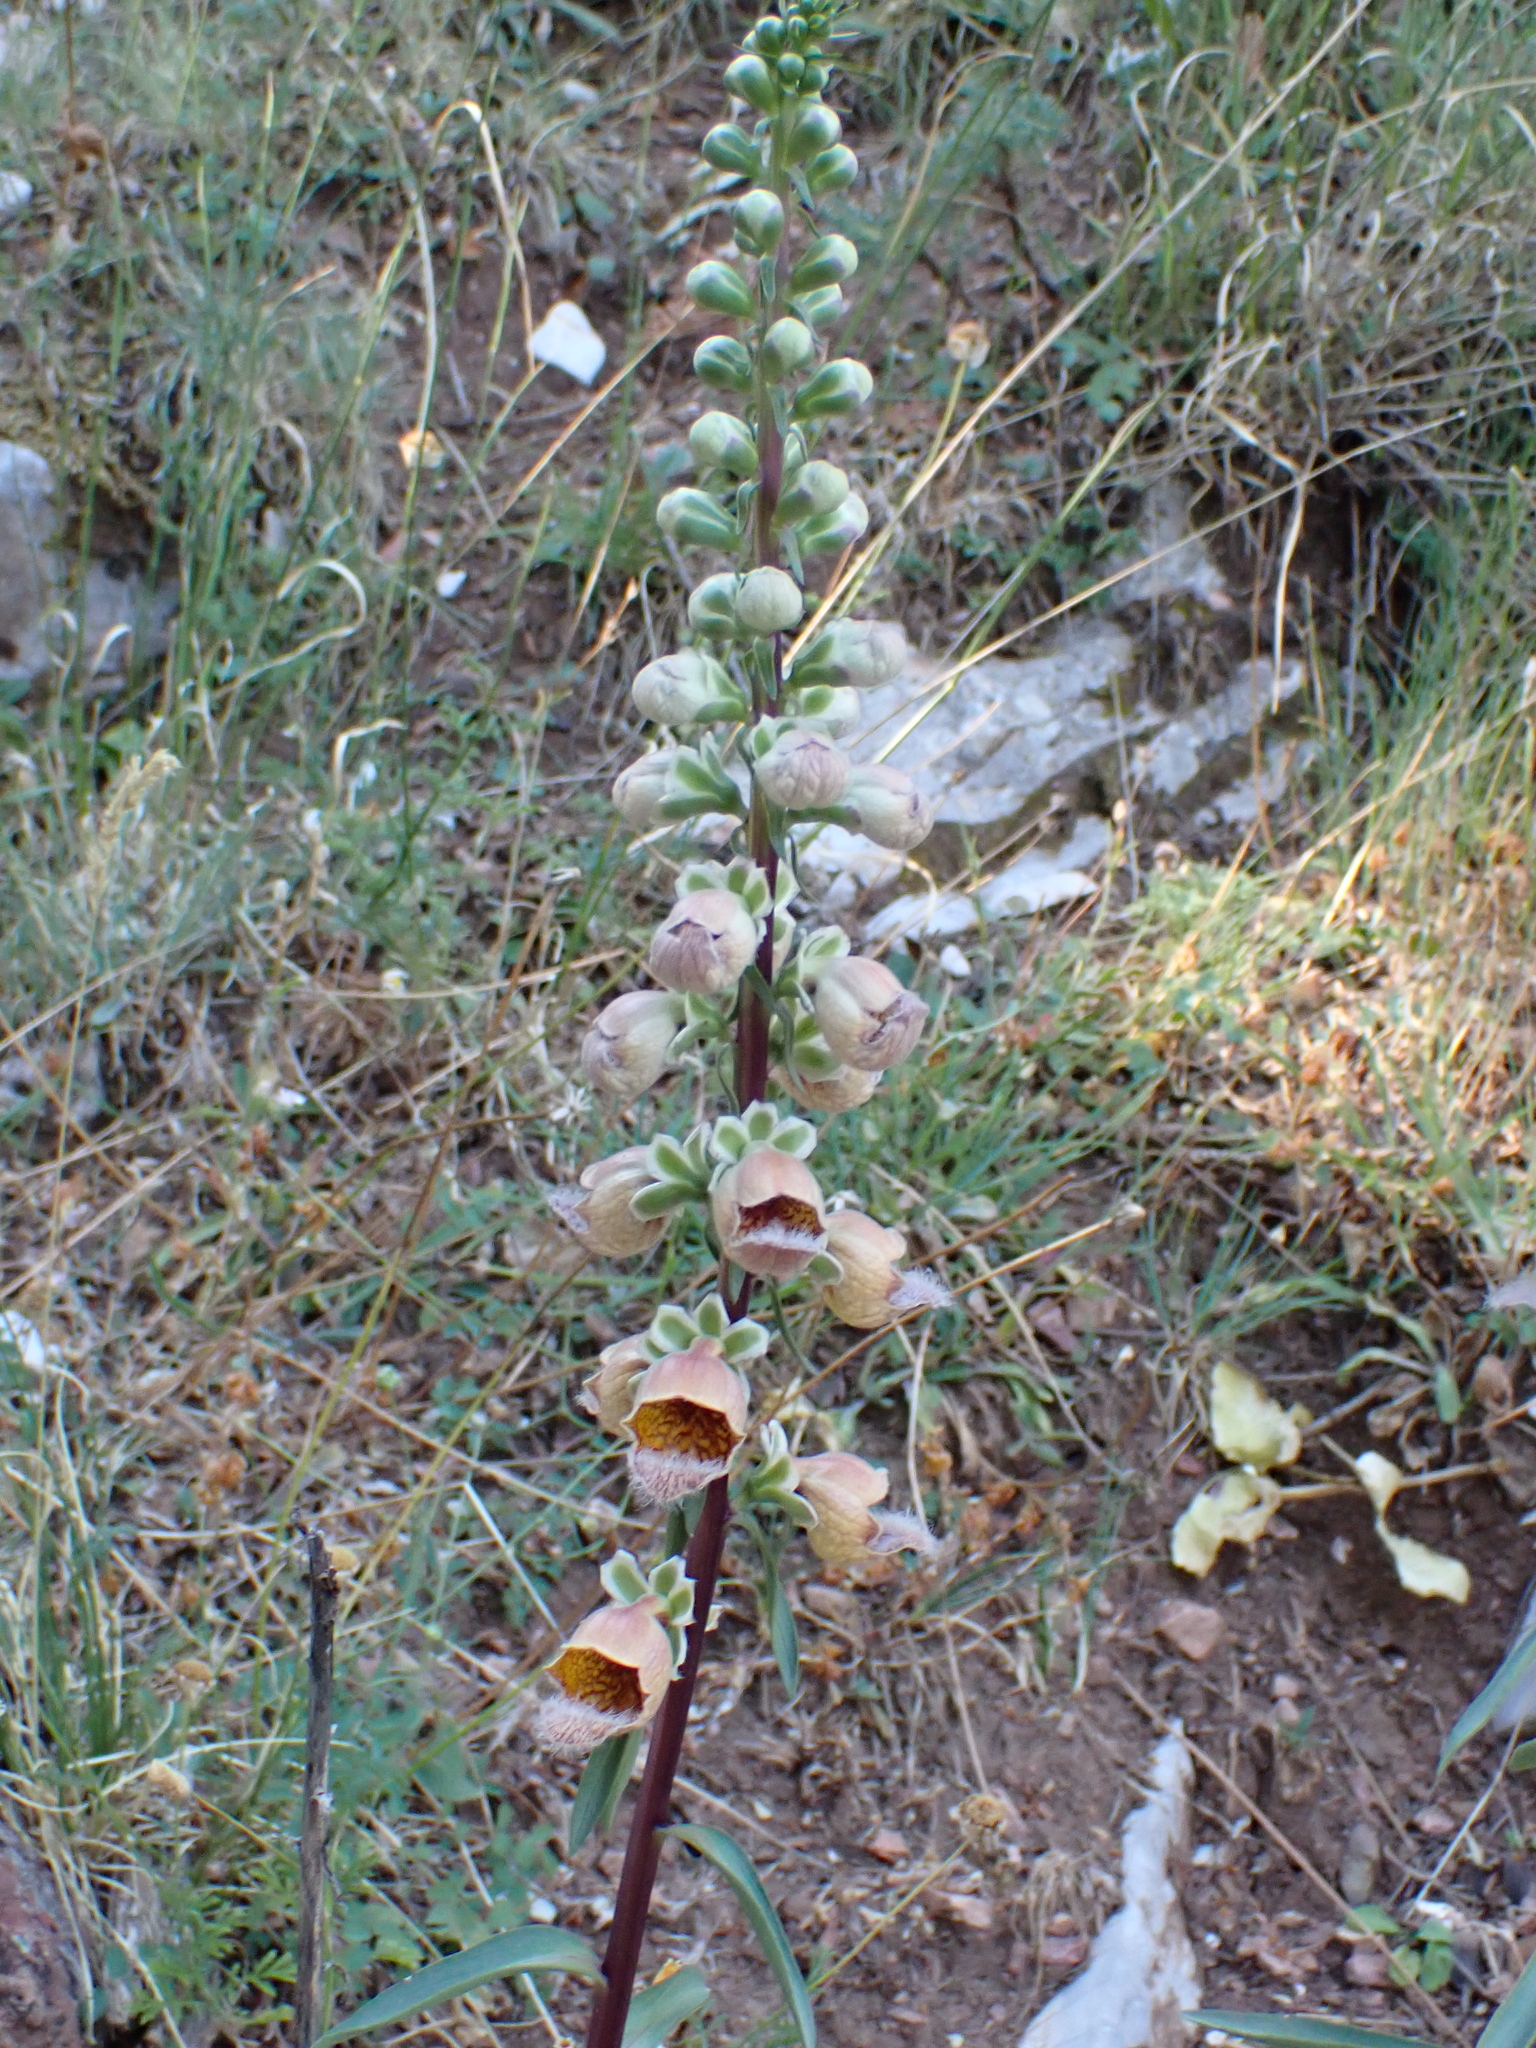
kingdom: Plantae
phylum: Tracheophyta
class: Magnoliopsida
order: Lamiales
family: Plantaginaceae
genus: Digitalis
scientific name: Digitalis ferruginea
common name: Rusty foxglove
